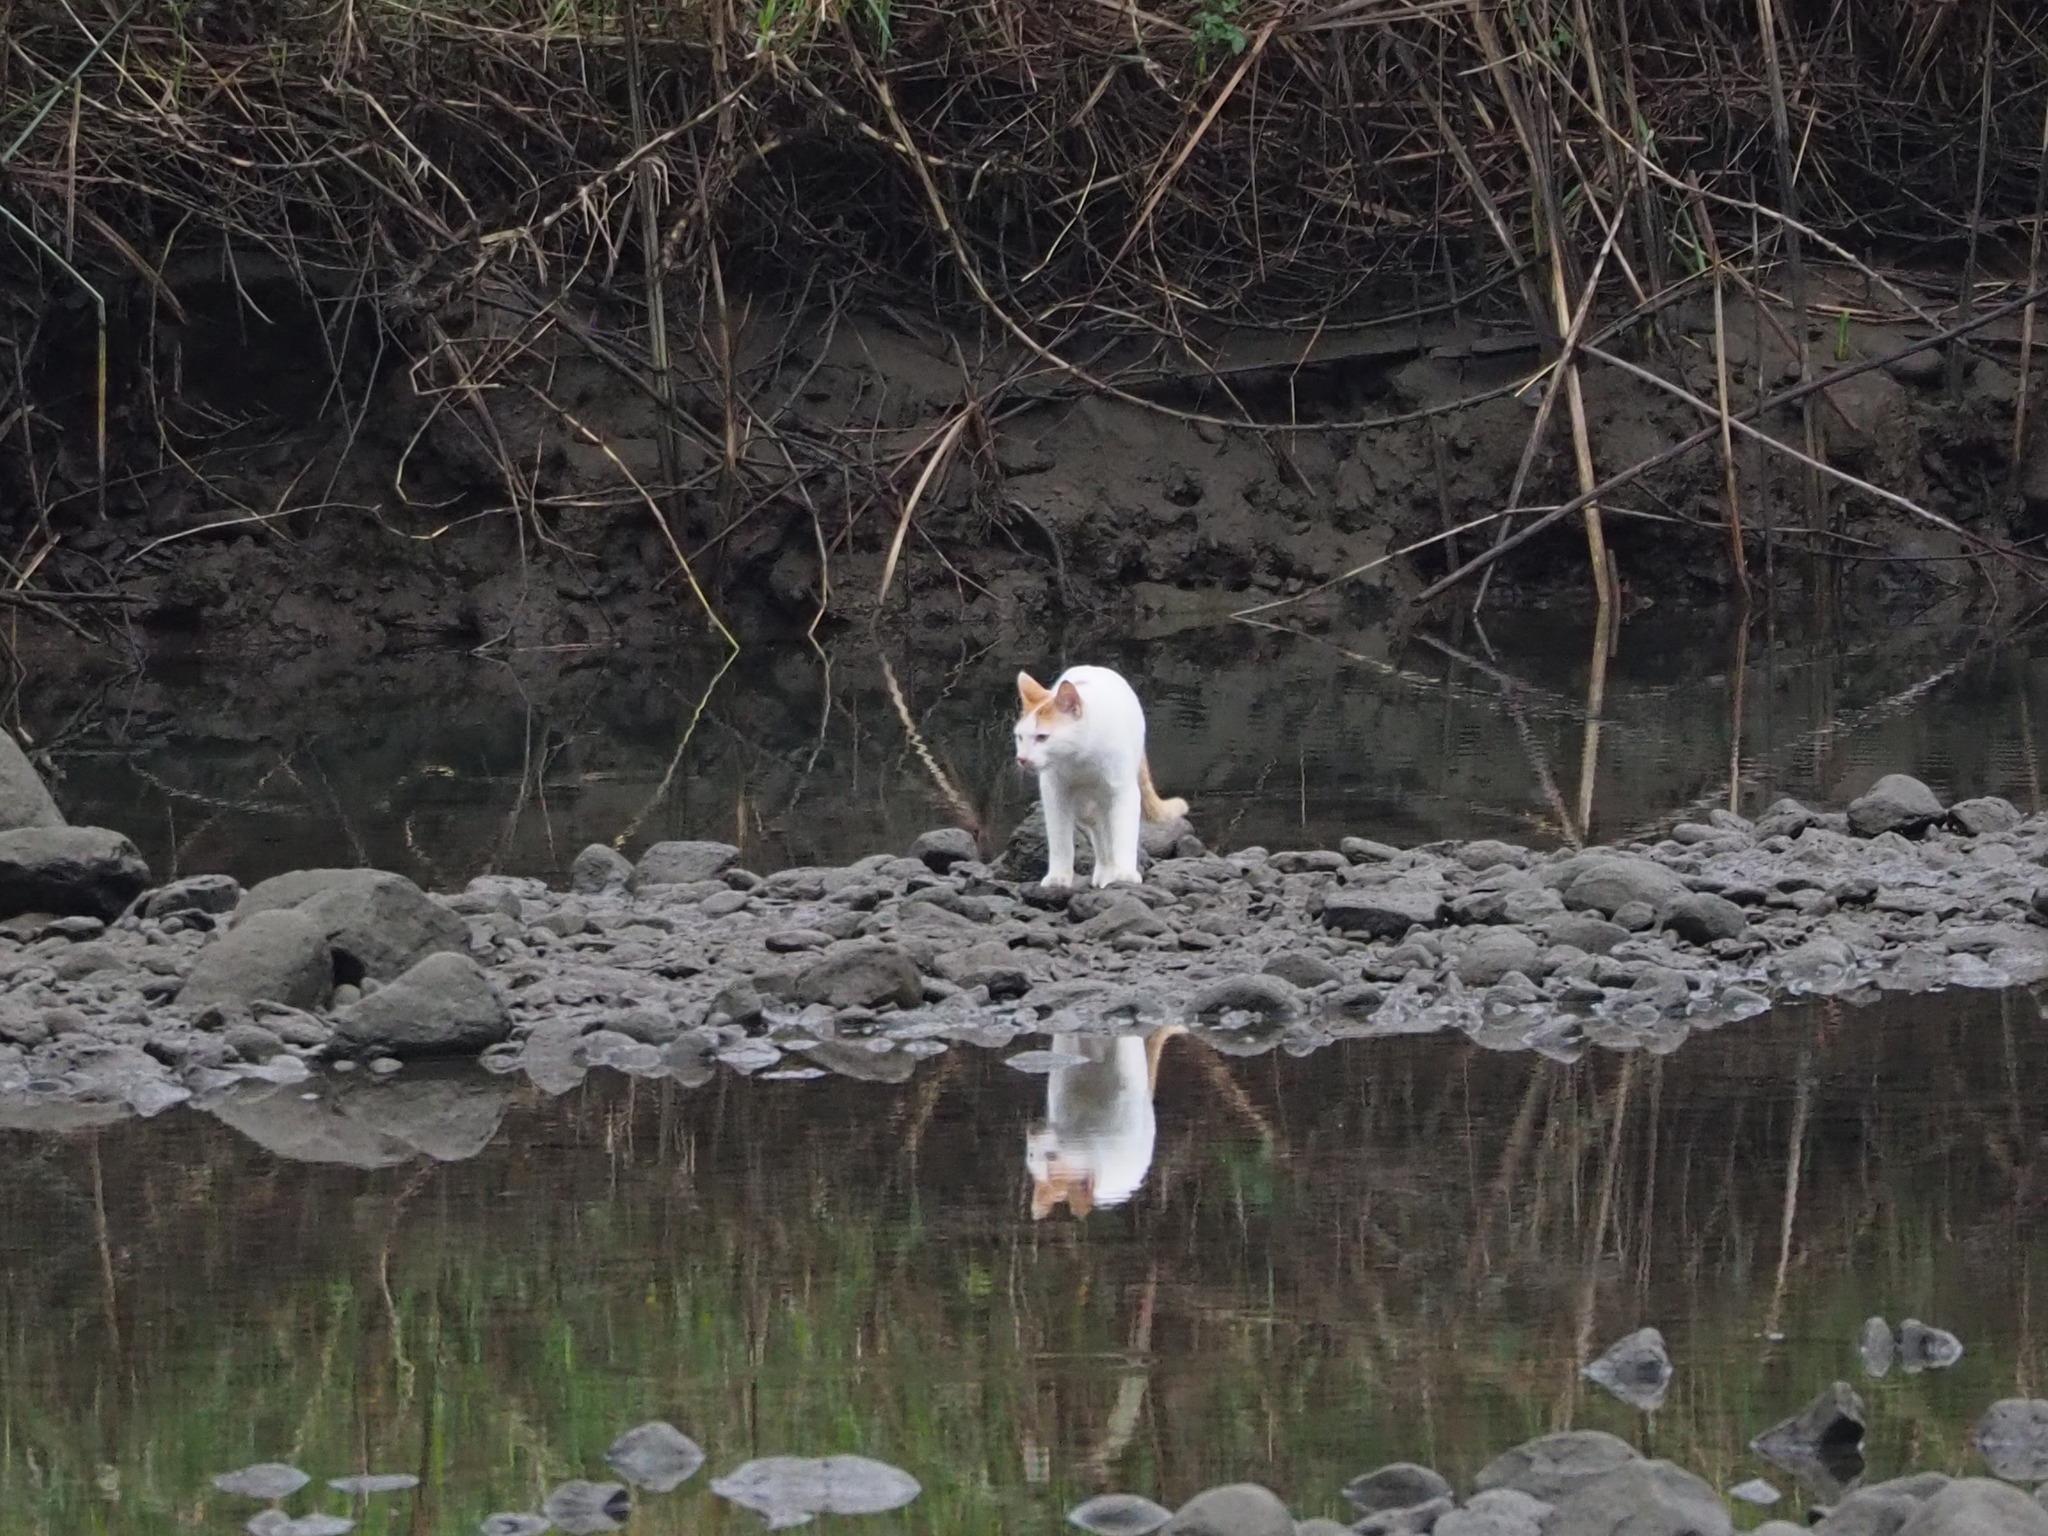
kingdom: Animalia
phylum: Chordata
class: Mammalia
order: Carnivora
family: Felidae
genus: Felis
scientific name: Felis catus
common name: Domestic cat
